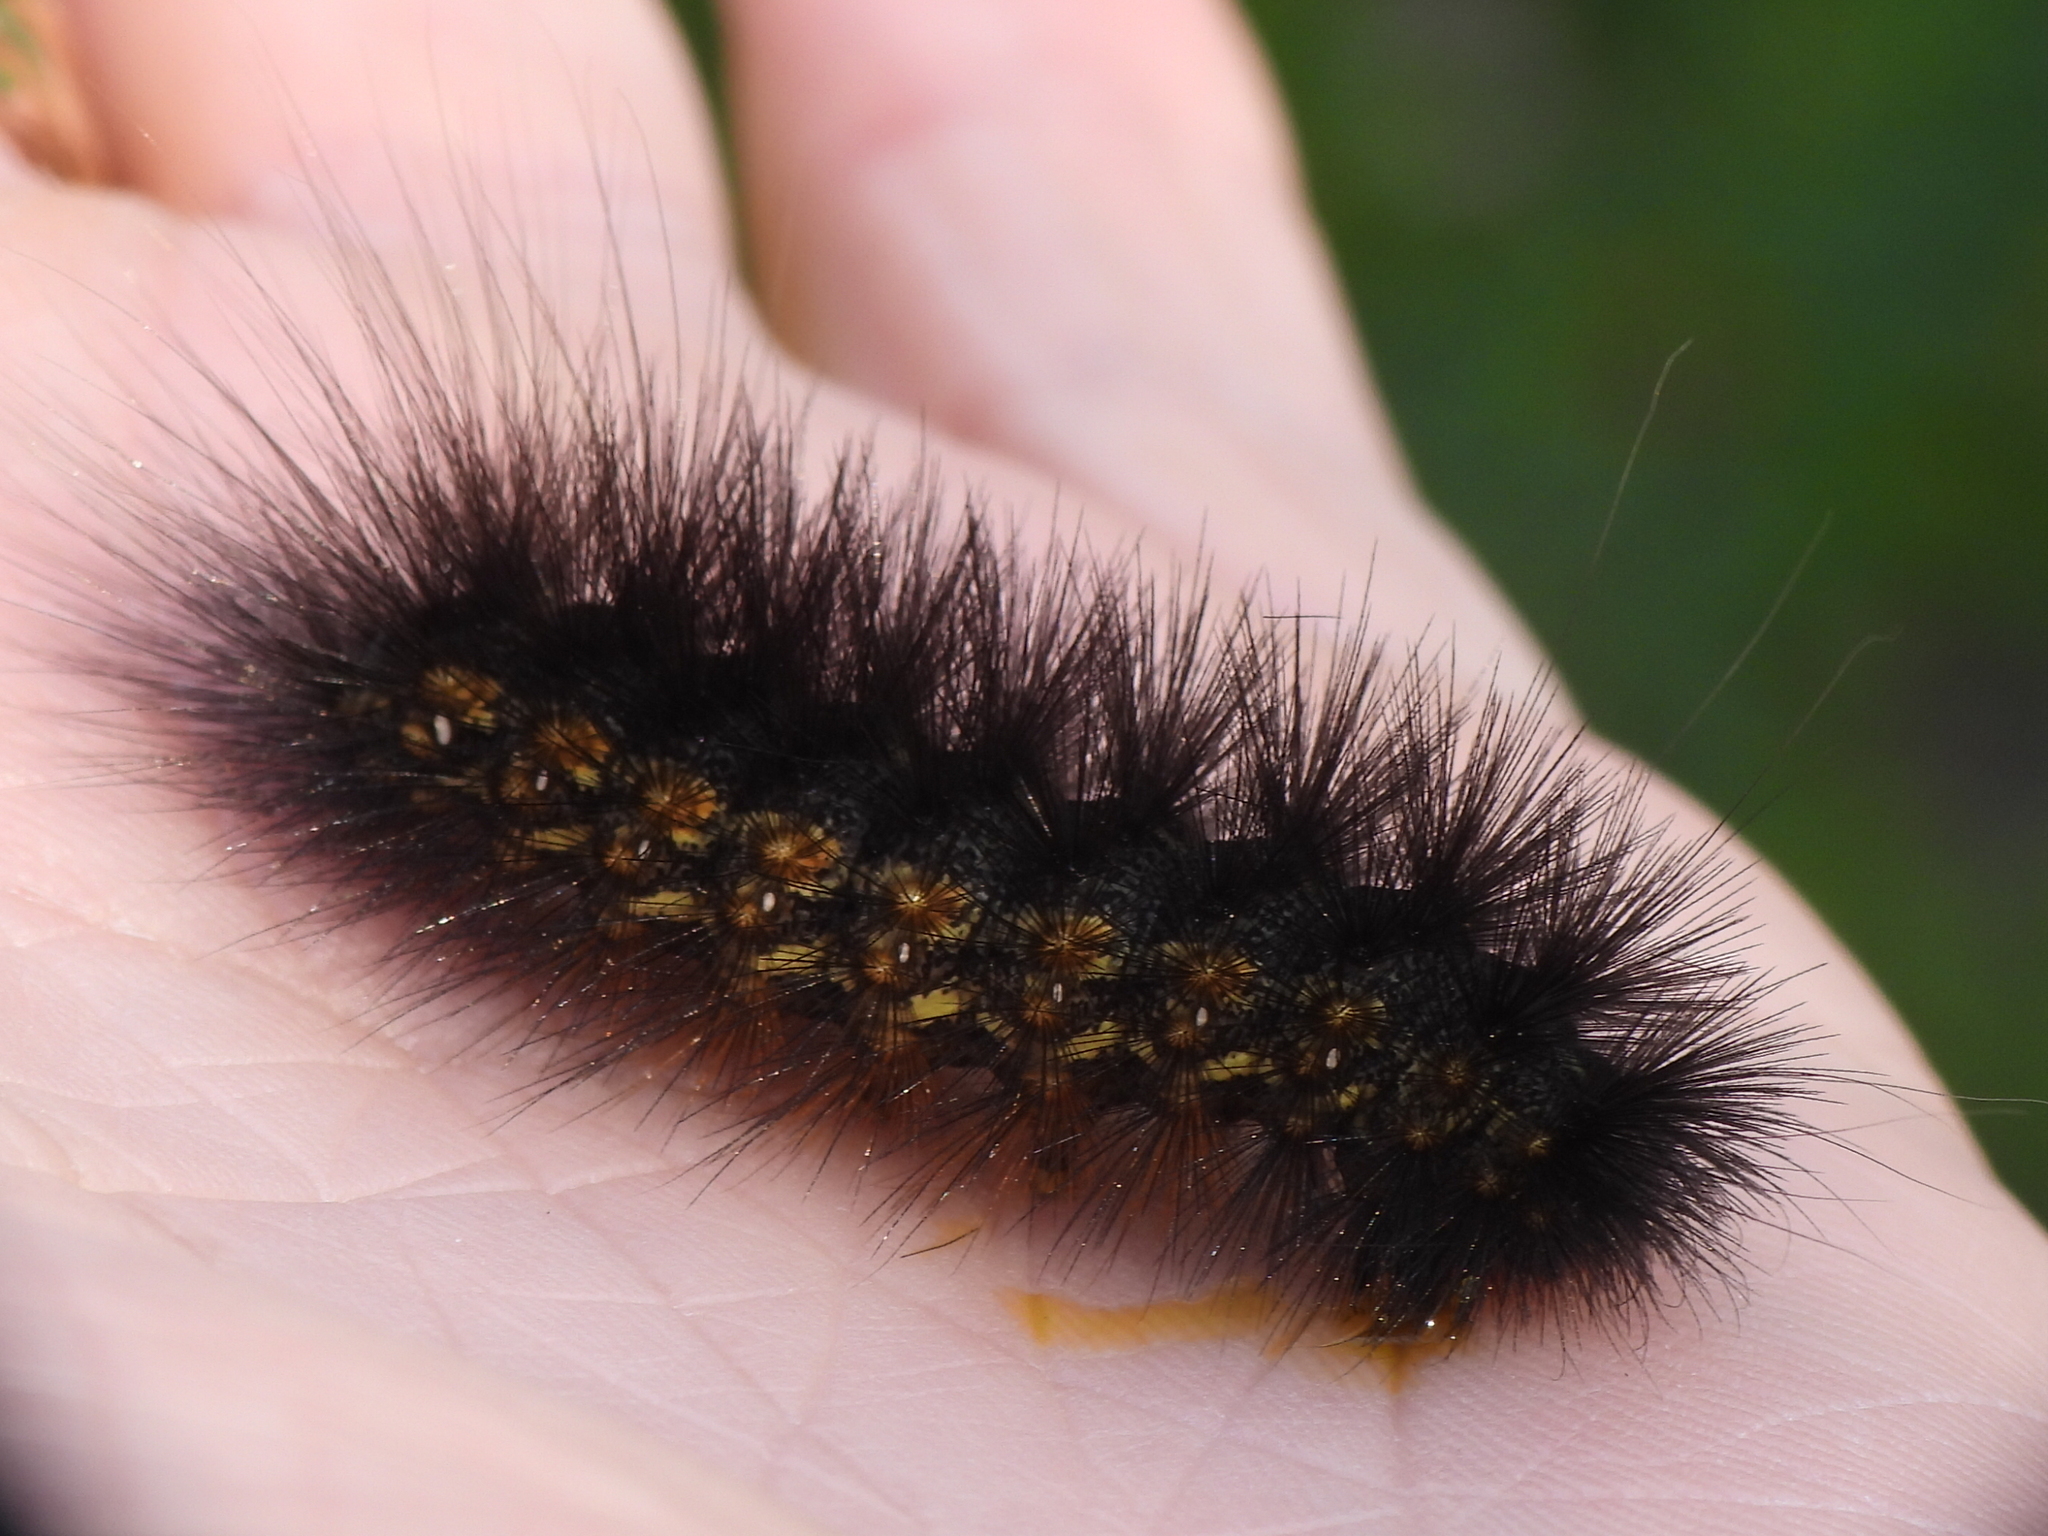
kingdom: Animalia
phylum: Arthropoda
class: Insecta
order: Lepidoptera
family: Erebidae
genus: Estigmene
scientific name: Estigmene acrea
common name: Salt marsh moth
